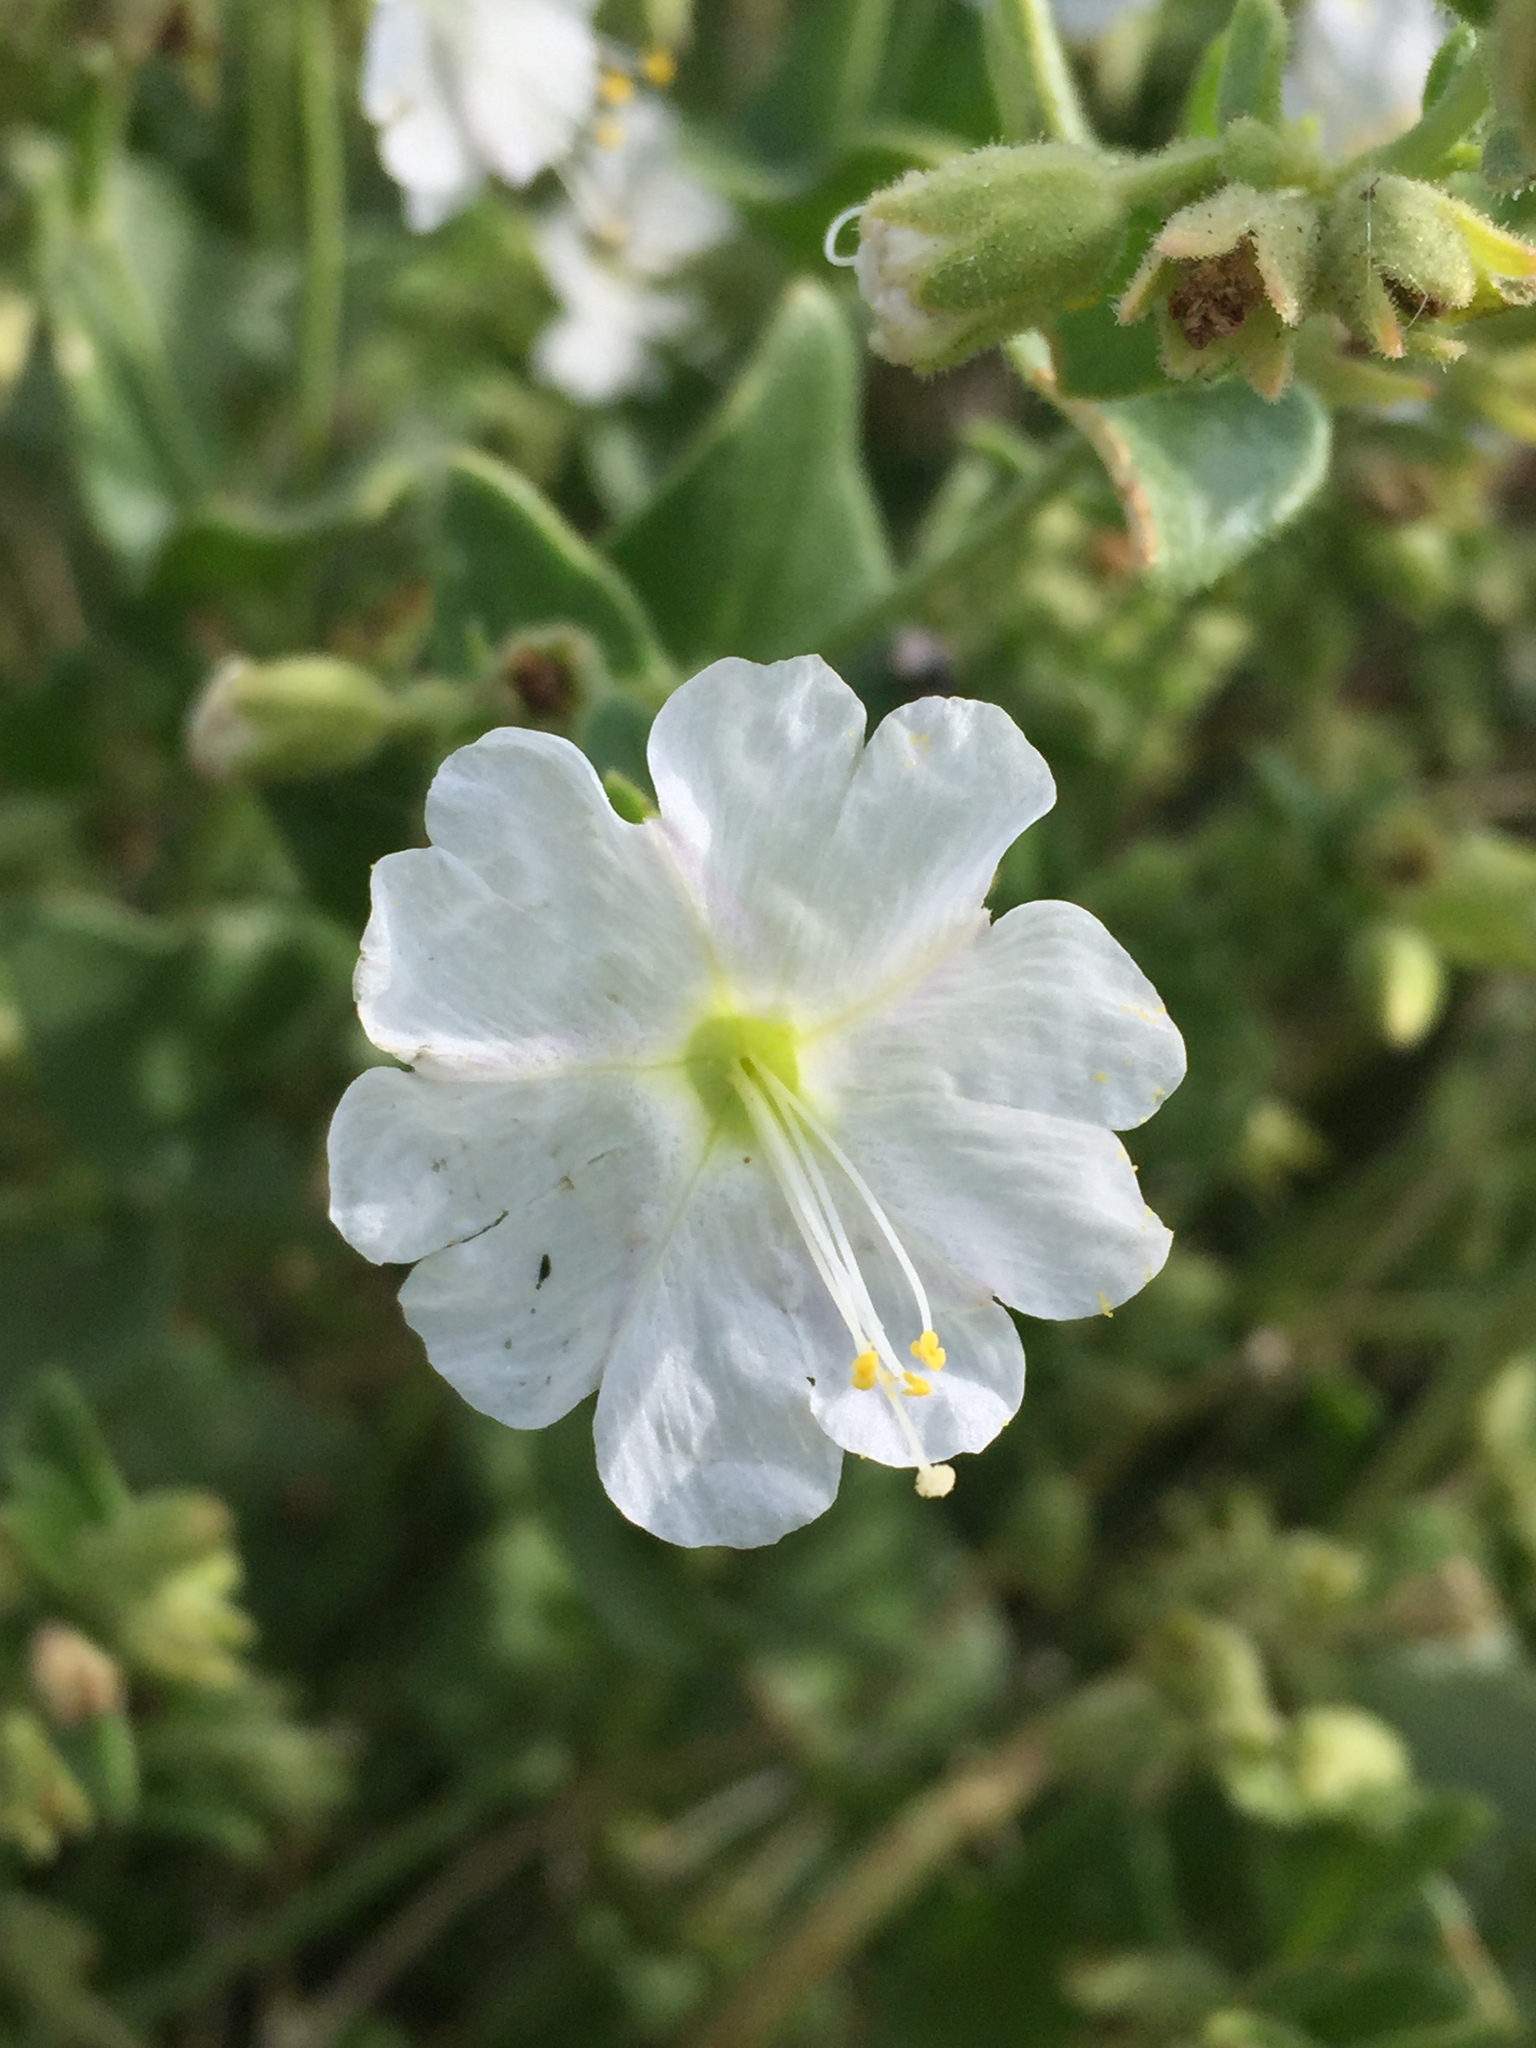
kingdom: Plantae
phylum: Tracheophyta
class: Magnoliopsida
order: Caryophyllales
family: Nyctaginaceae
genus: Mirabilis
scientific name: Mirabilis laevis
